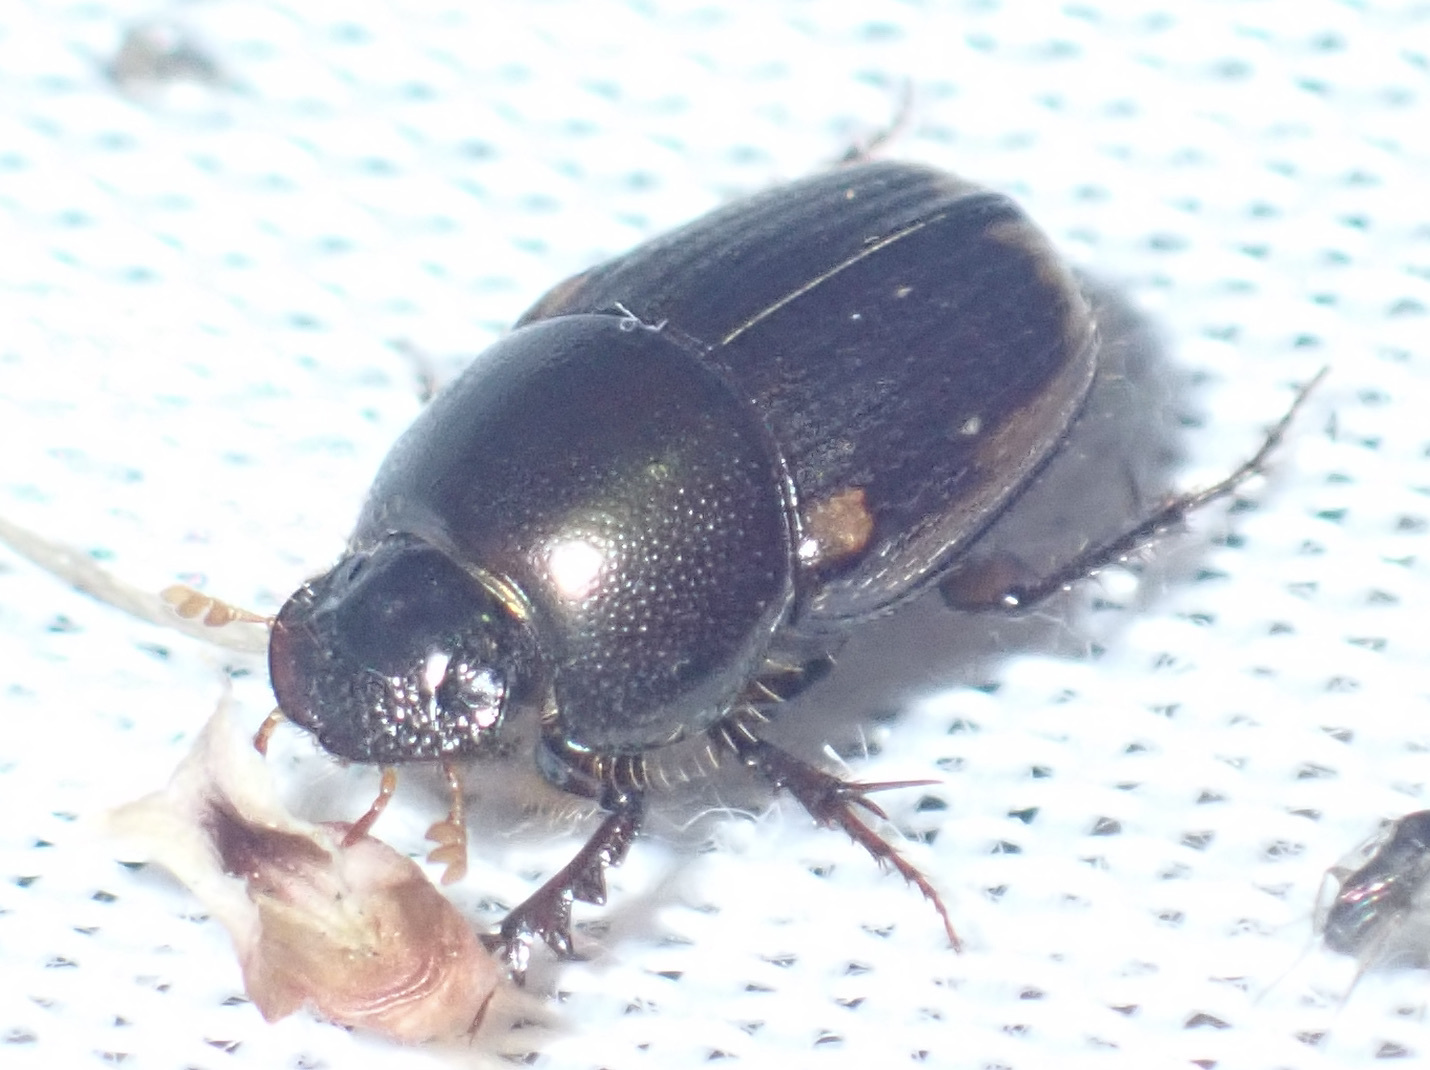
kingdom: Animalia
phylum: Arthropoda
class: Insecta
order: Coleoptera
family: Scarabaeidae
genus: Onthophagus
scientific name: Onthophagus vinctus
